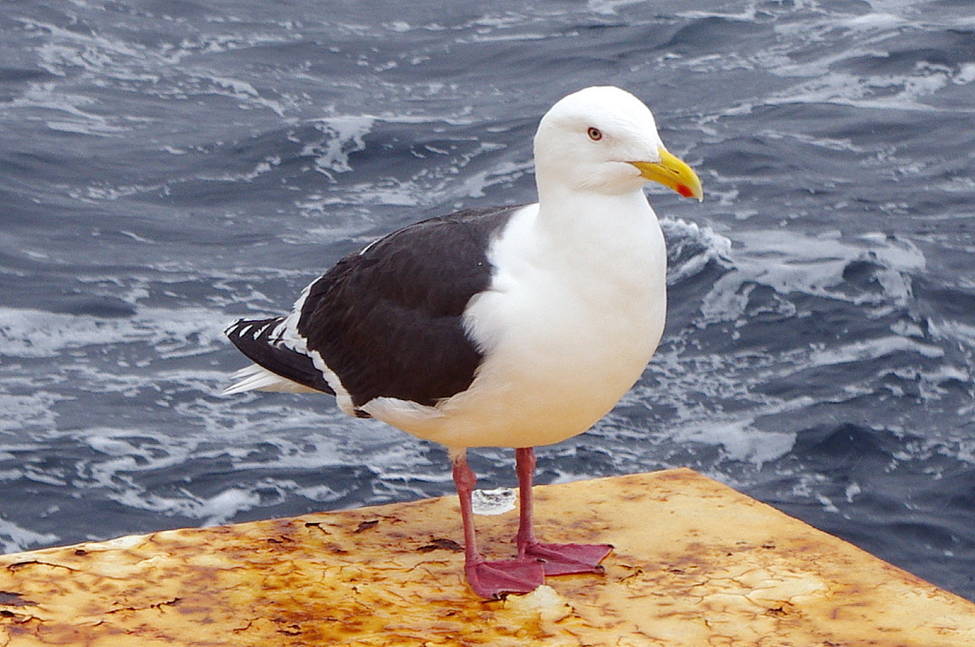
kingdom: Animalia
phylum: Chordata
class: Aves
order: Charadriiformes
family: Laridae
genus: Larus
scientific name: Larus schistisagus
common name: Slaty-backed gull
